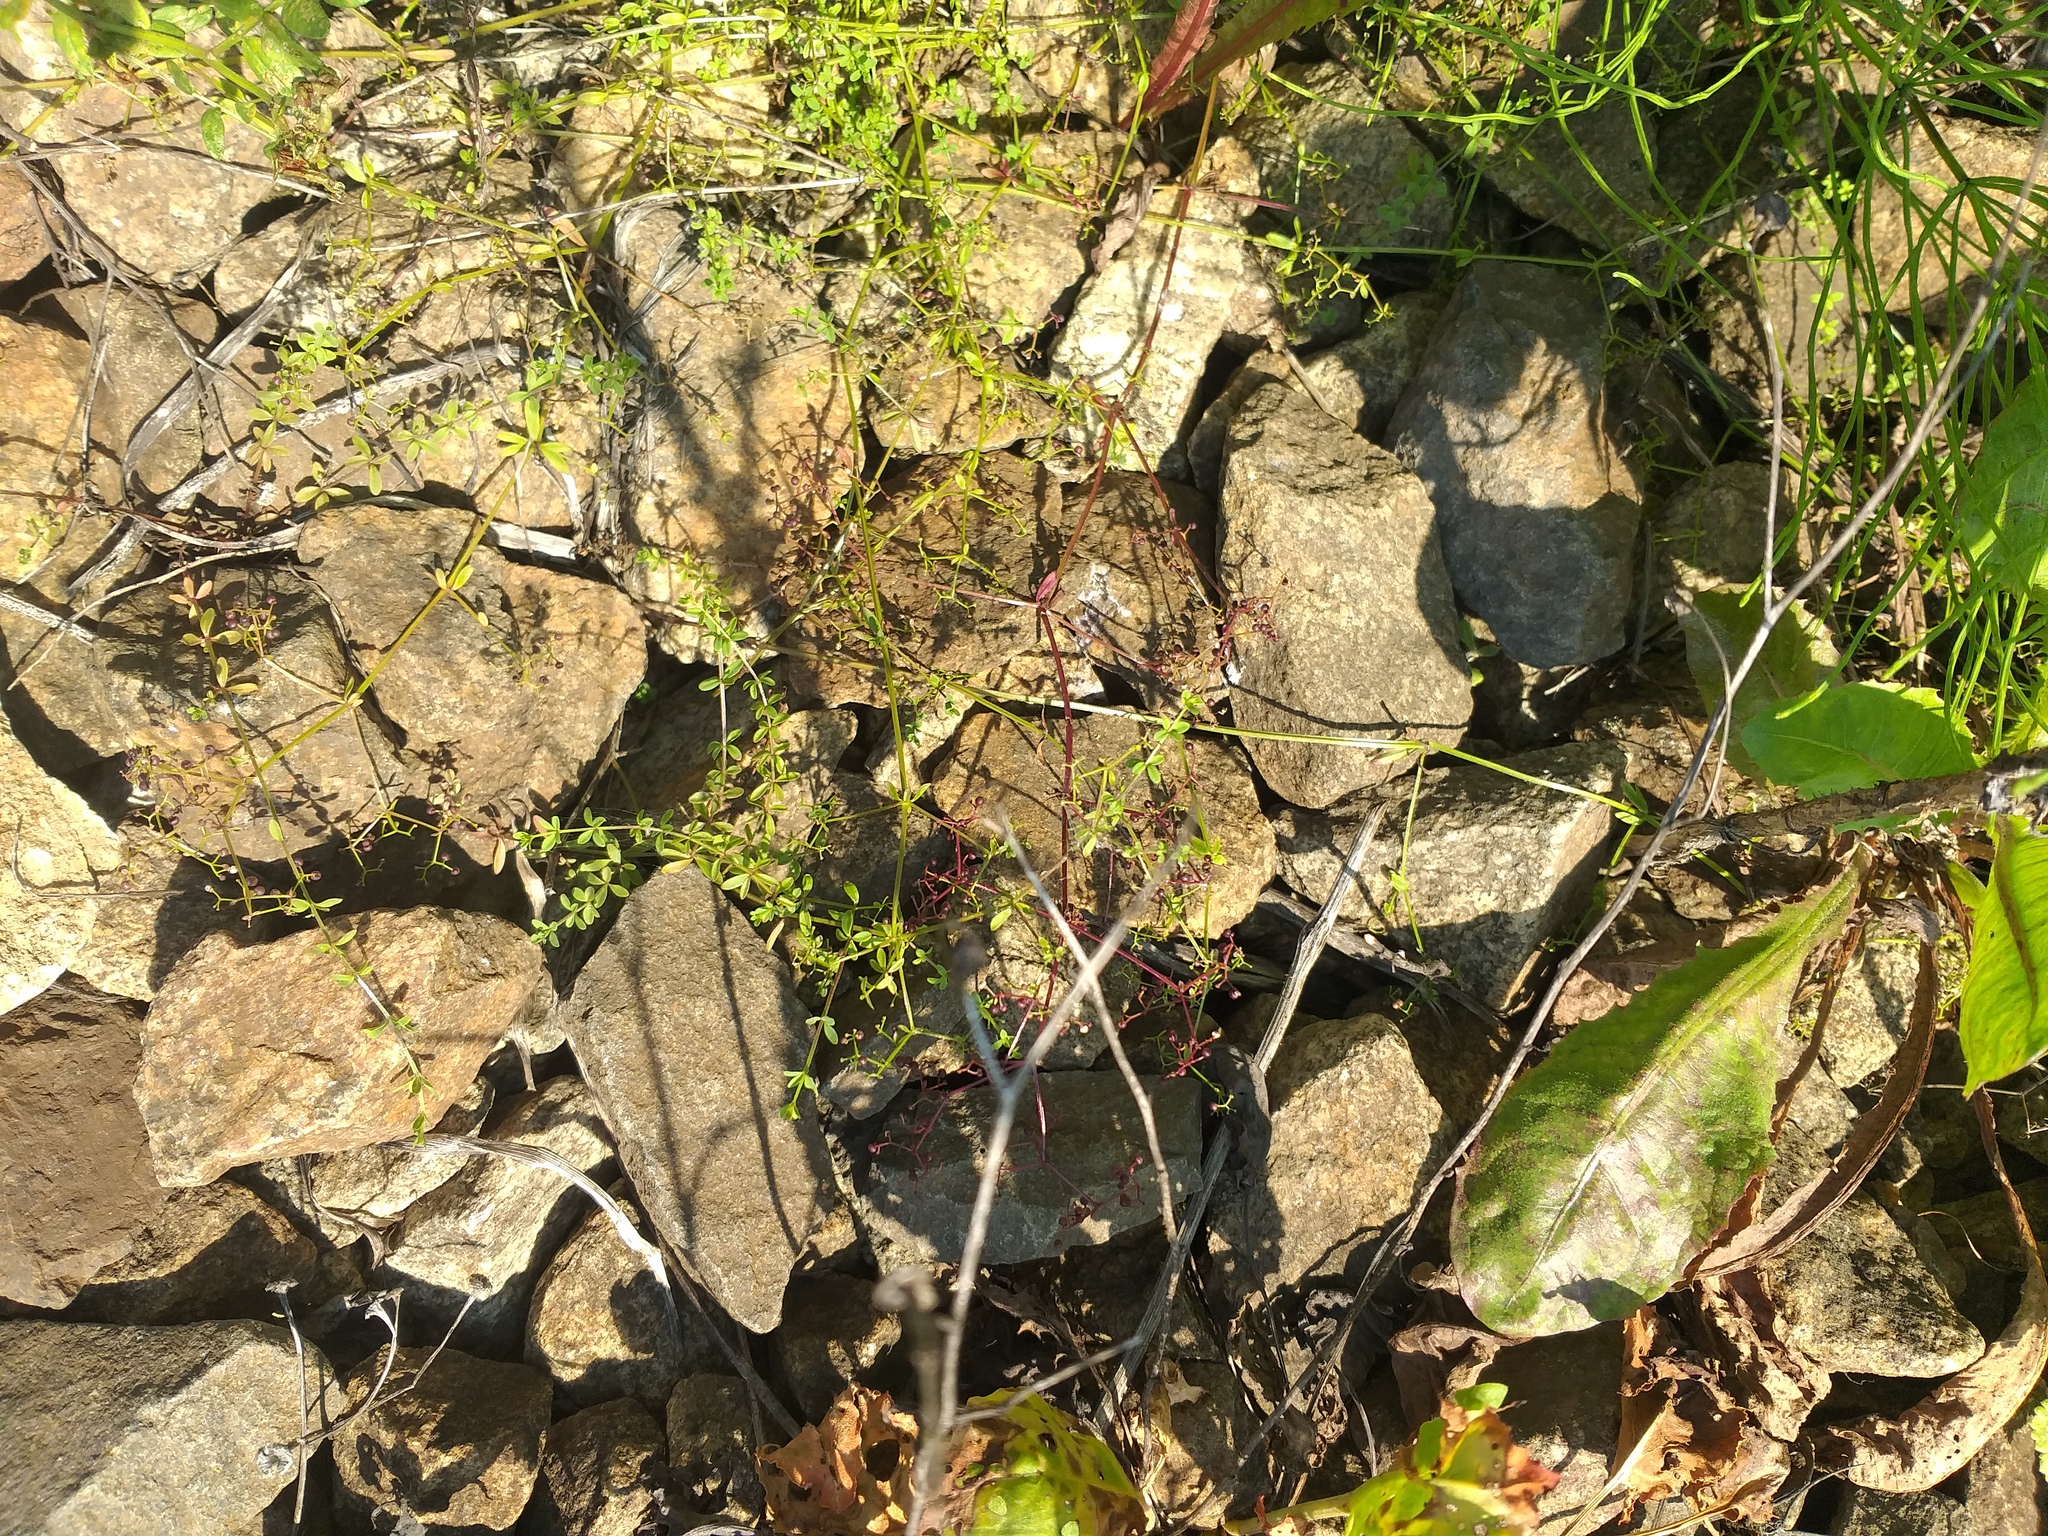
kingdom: Plantae
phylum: Tracheophyta
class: Magnoliopsida
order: Gentianales
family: Rubiaceae
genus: Galium
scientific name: Galium palustre
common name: Common marsh-bedstraw
